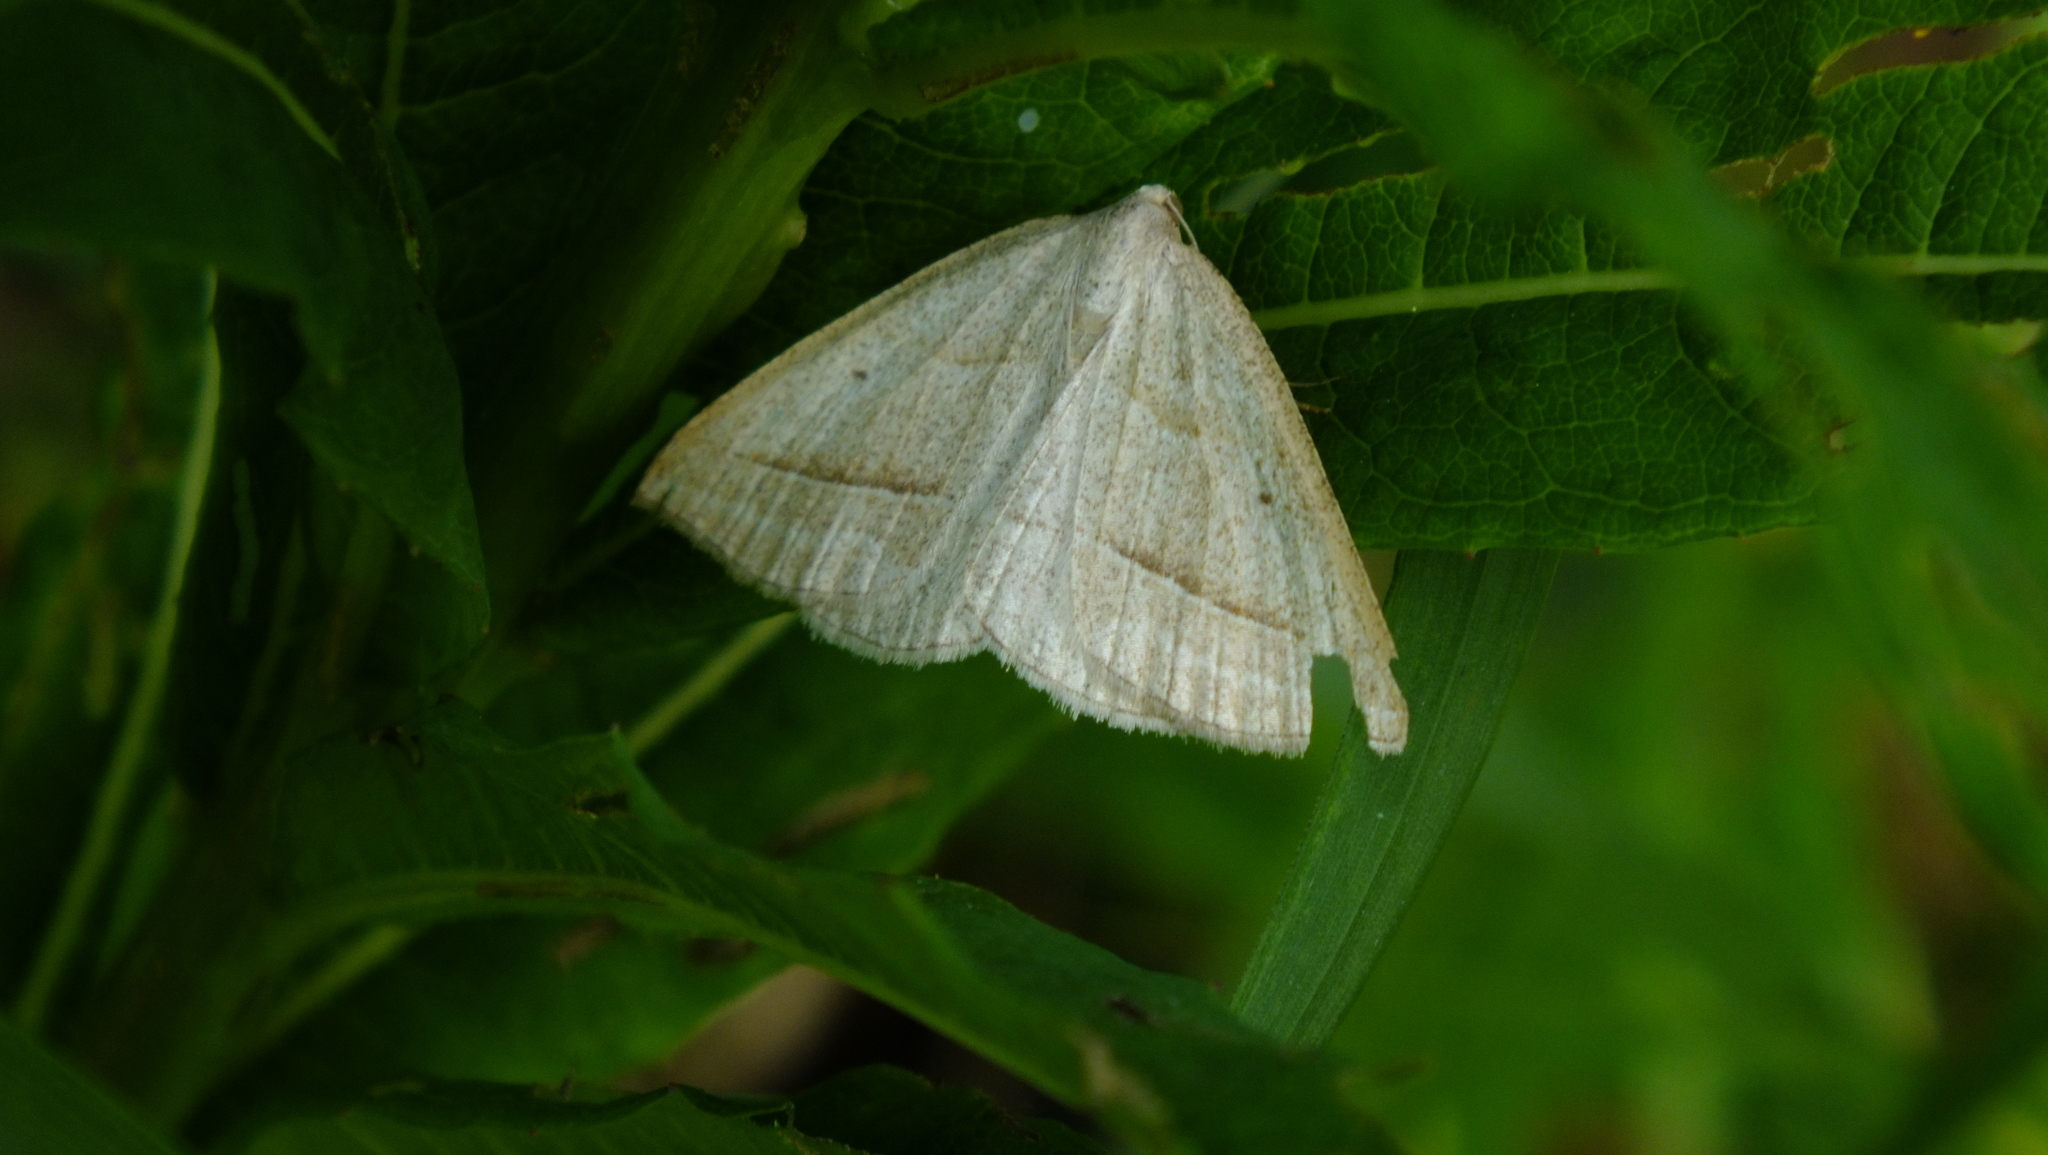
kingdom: Animalia
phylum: Arthropoda
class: Insecta
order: Lepidoptera
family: Pterophoridae
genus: Pterophorus
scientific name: Pterophorus Petrophora chlorosata
